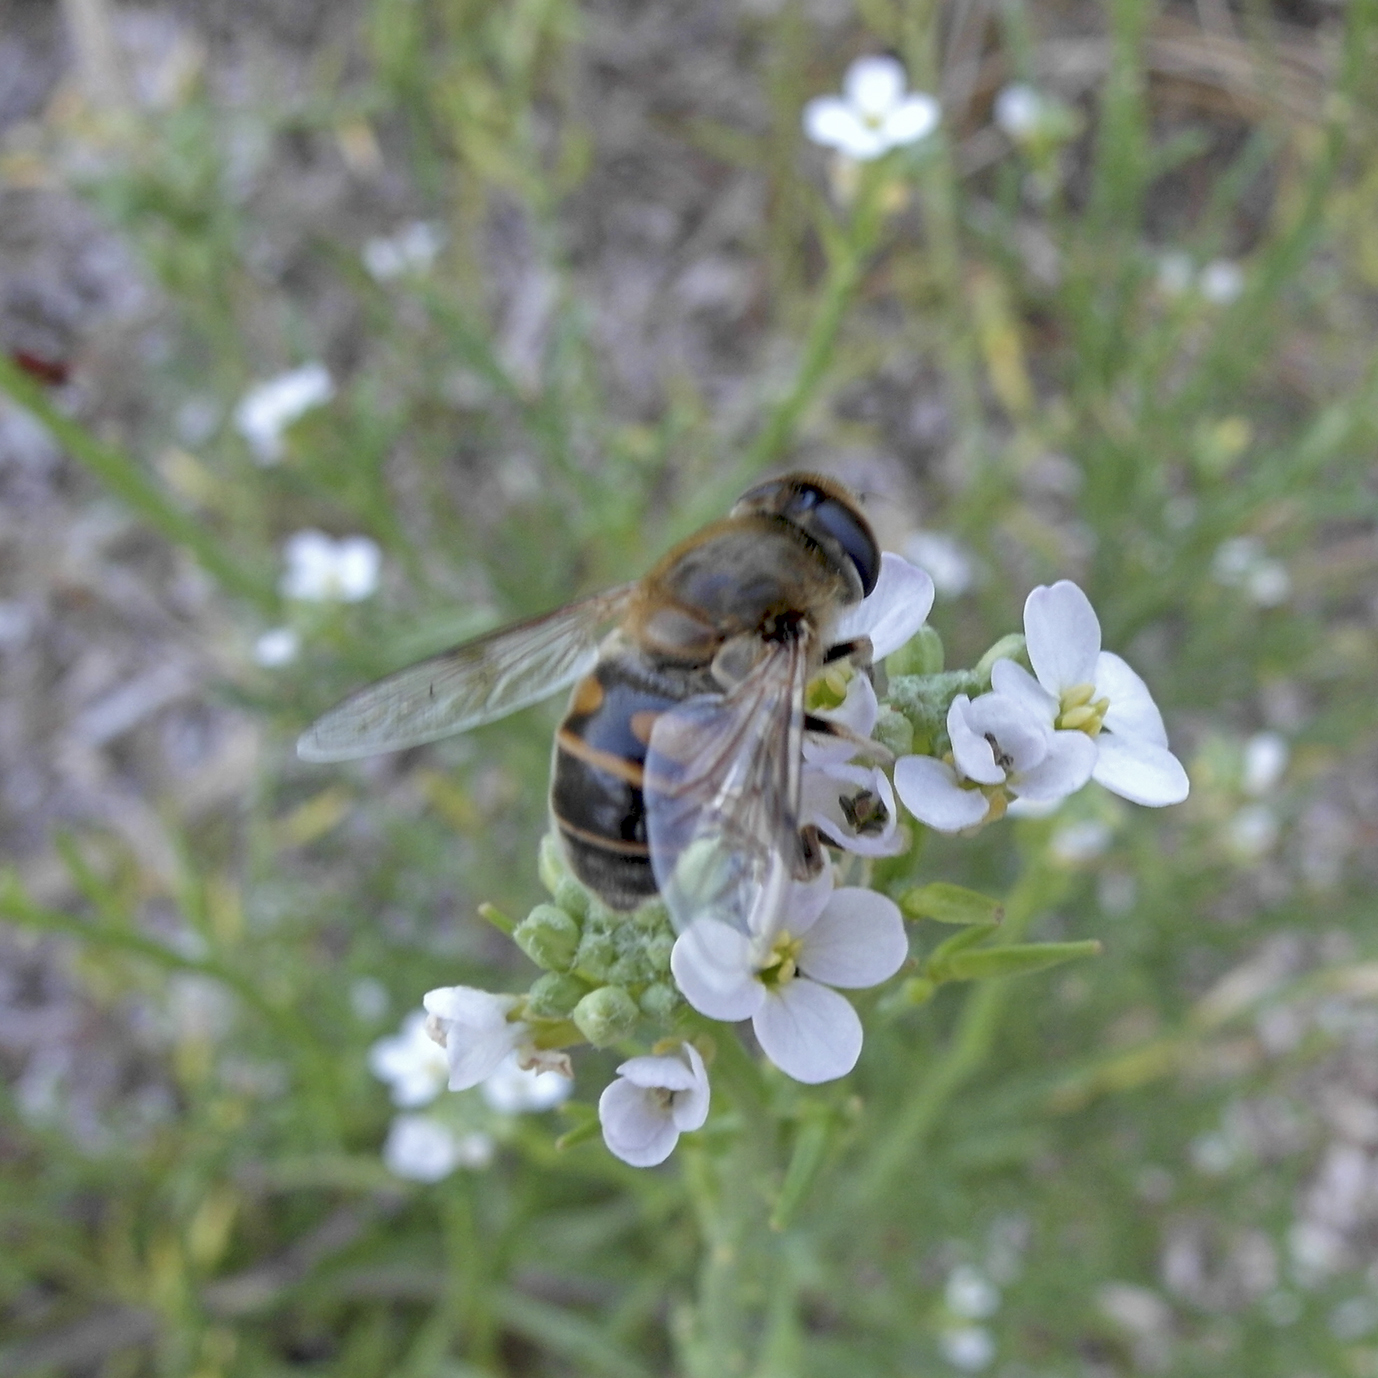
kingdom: Animalia
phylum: Arthropoda
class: Insecta
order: Diptera
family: Syrphidae
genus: Eristalis
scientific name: Eristalis tenax
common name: Drone fly
